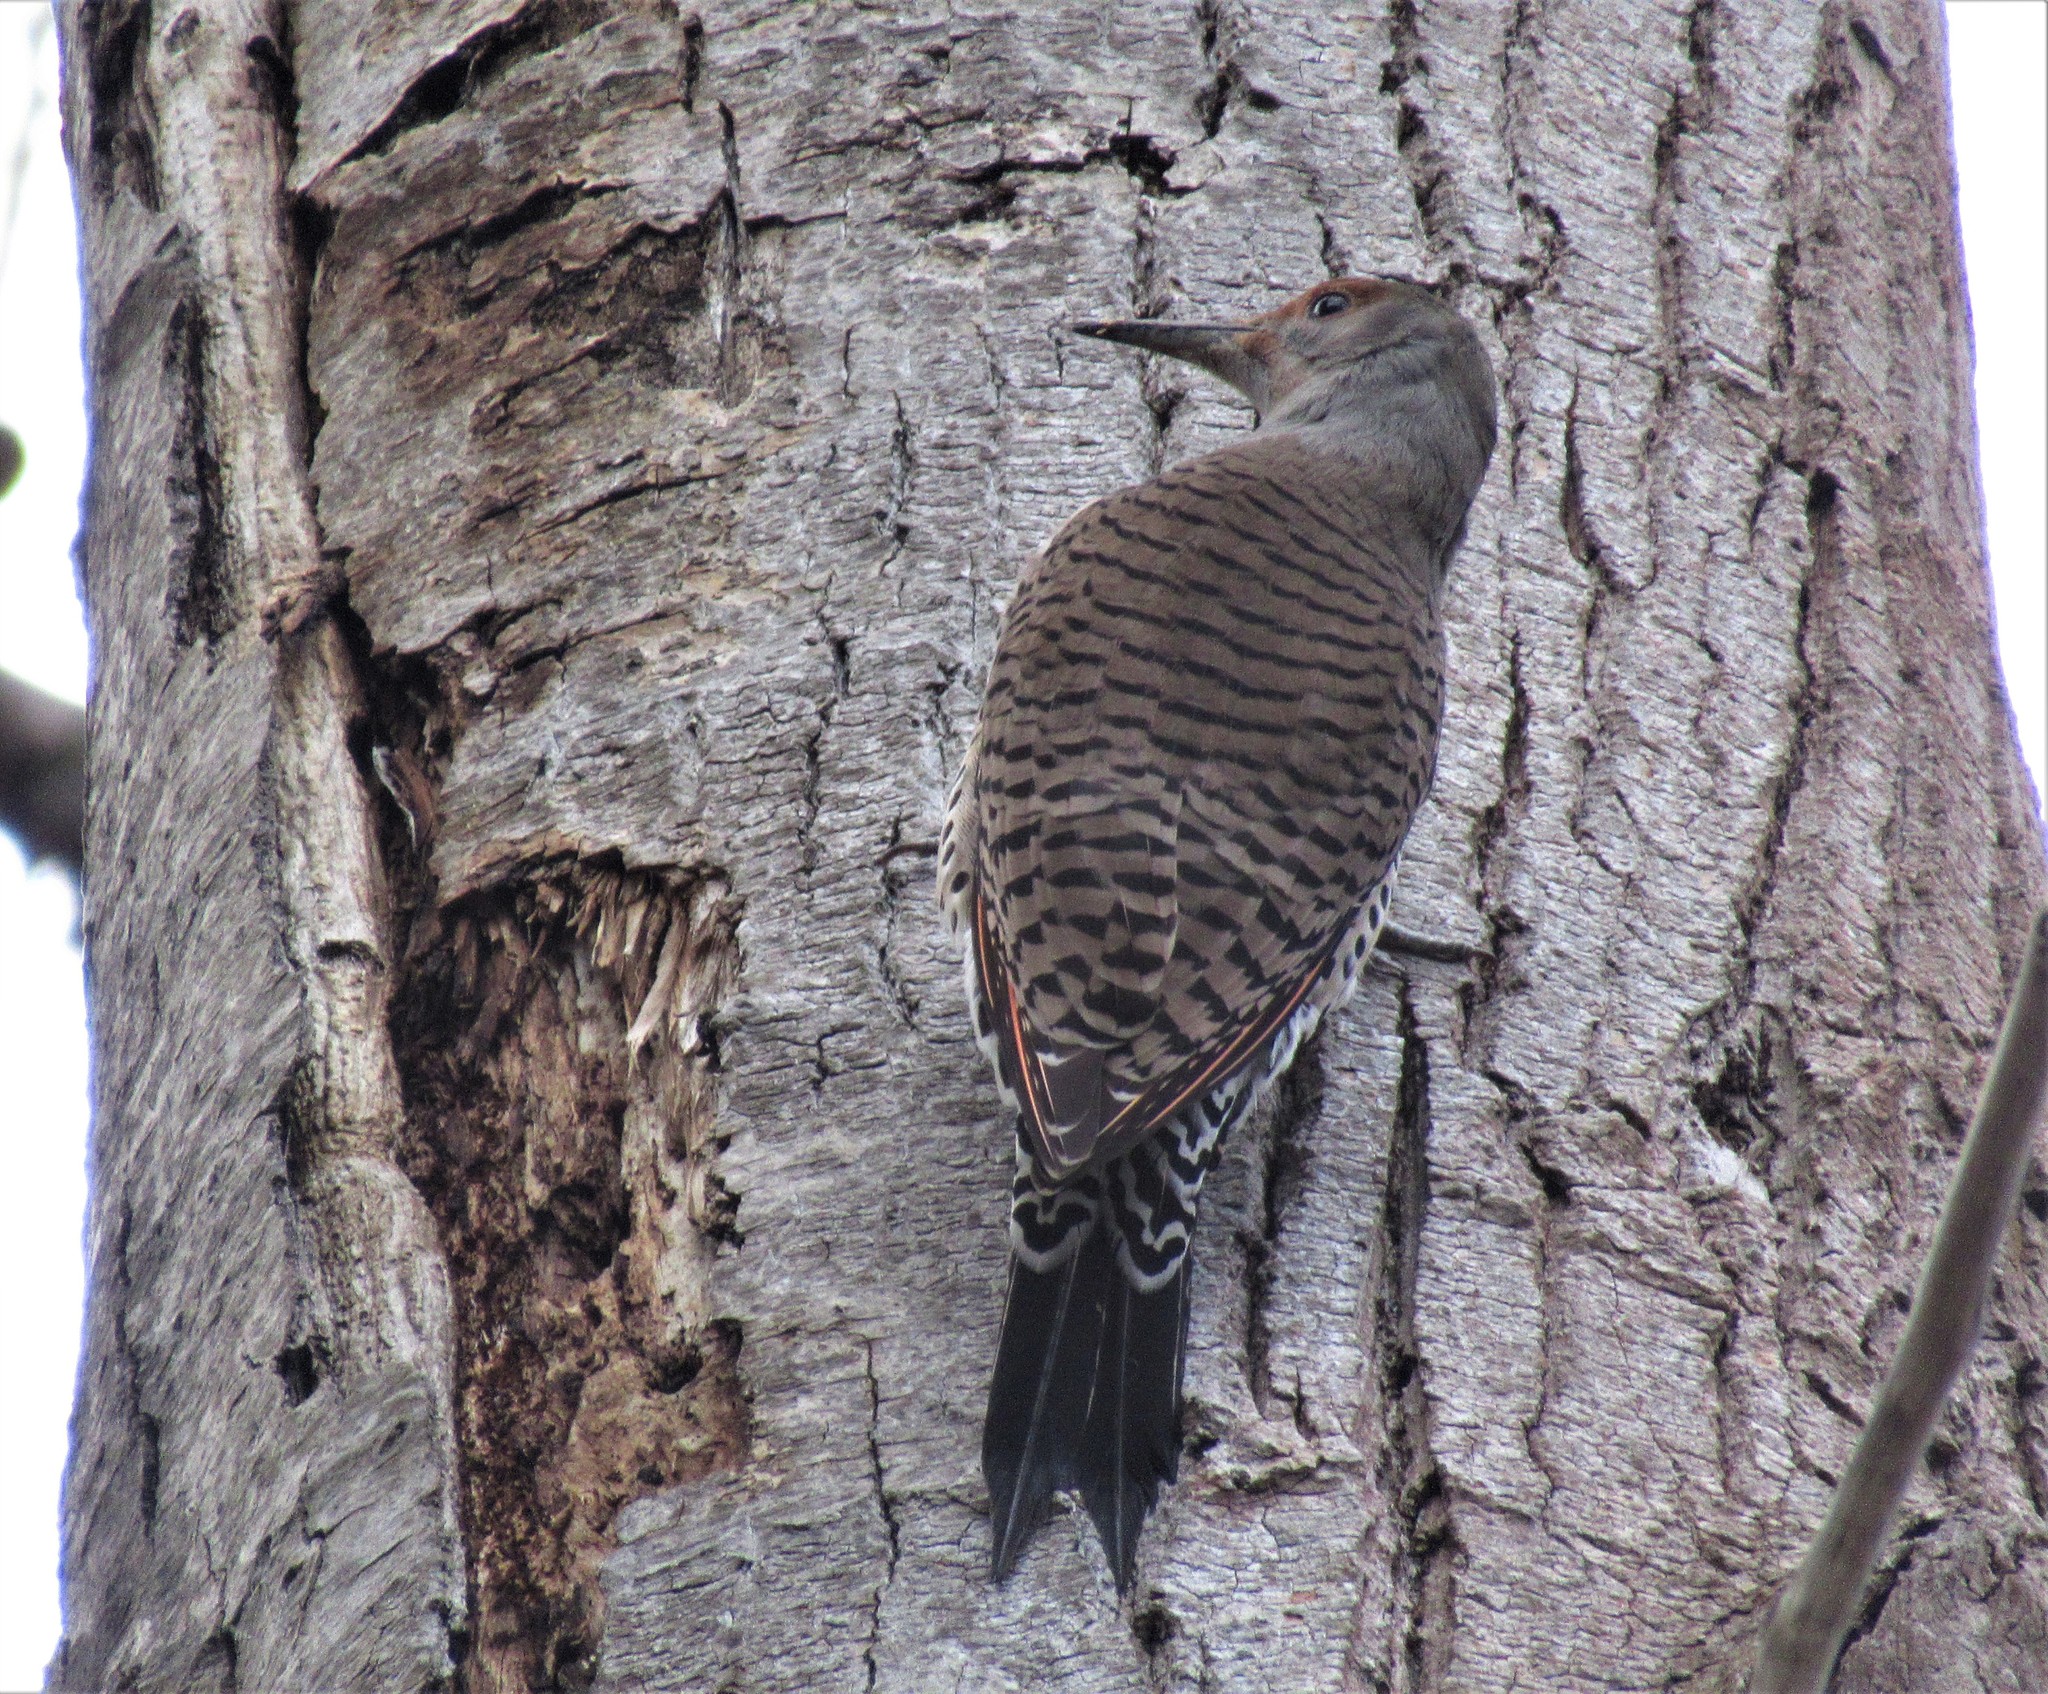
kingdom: Animalia
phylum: Chordata
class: Aves
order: Piciformes
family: Picidae
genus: Colaptes
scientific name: Colaptes auratus
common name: Northern flicker
